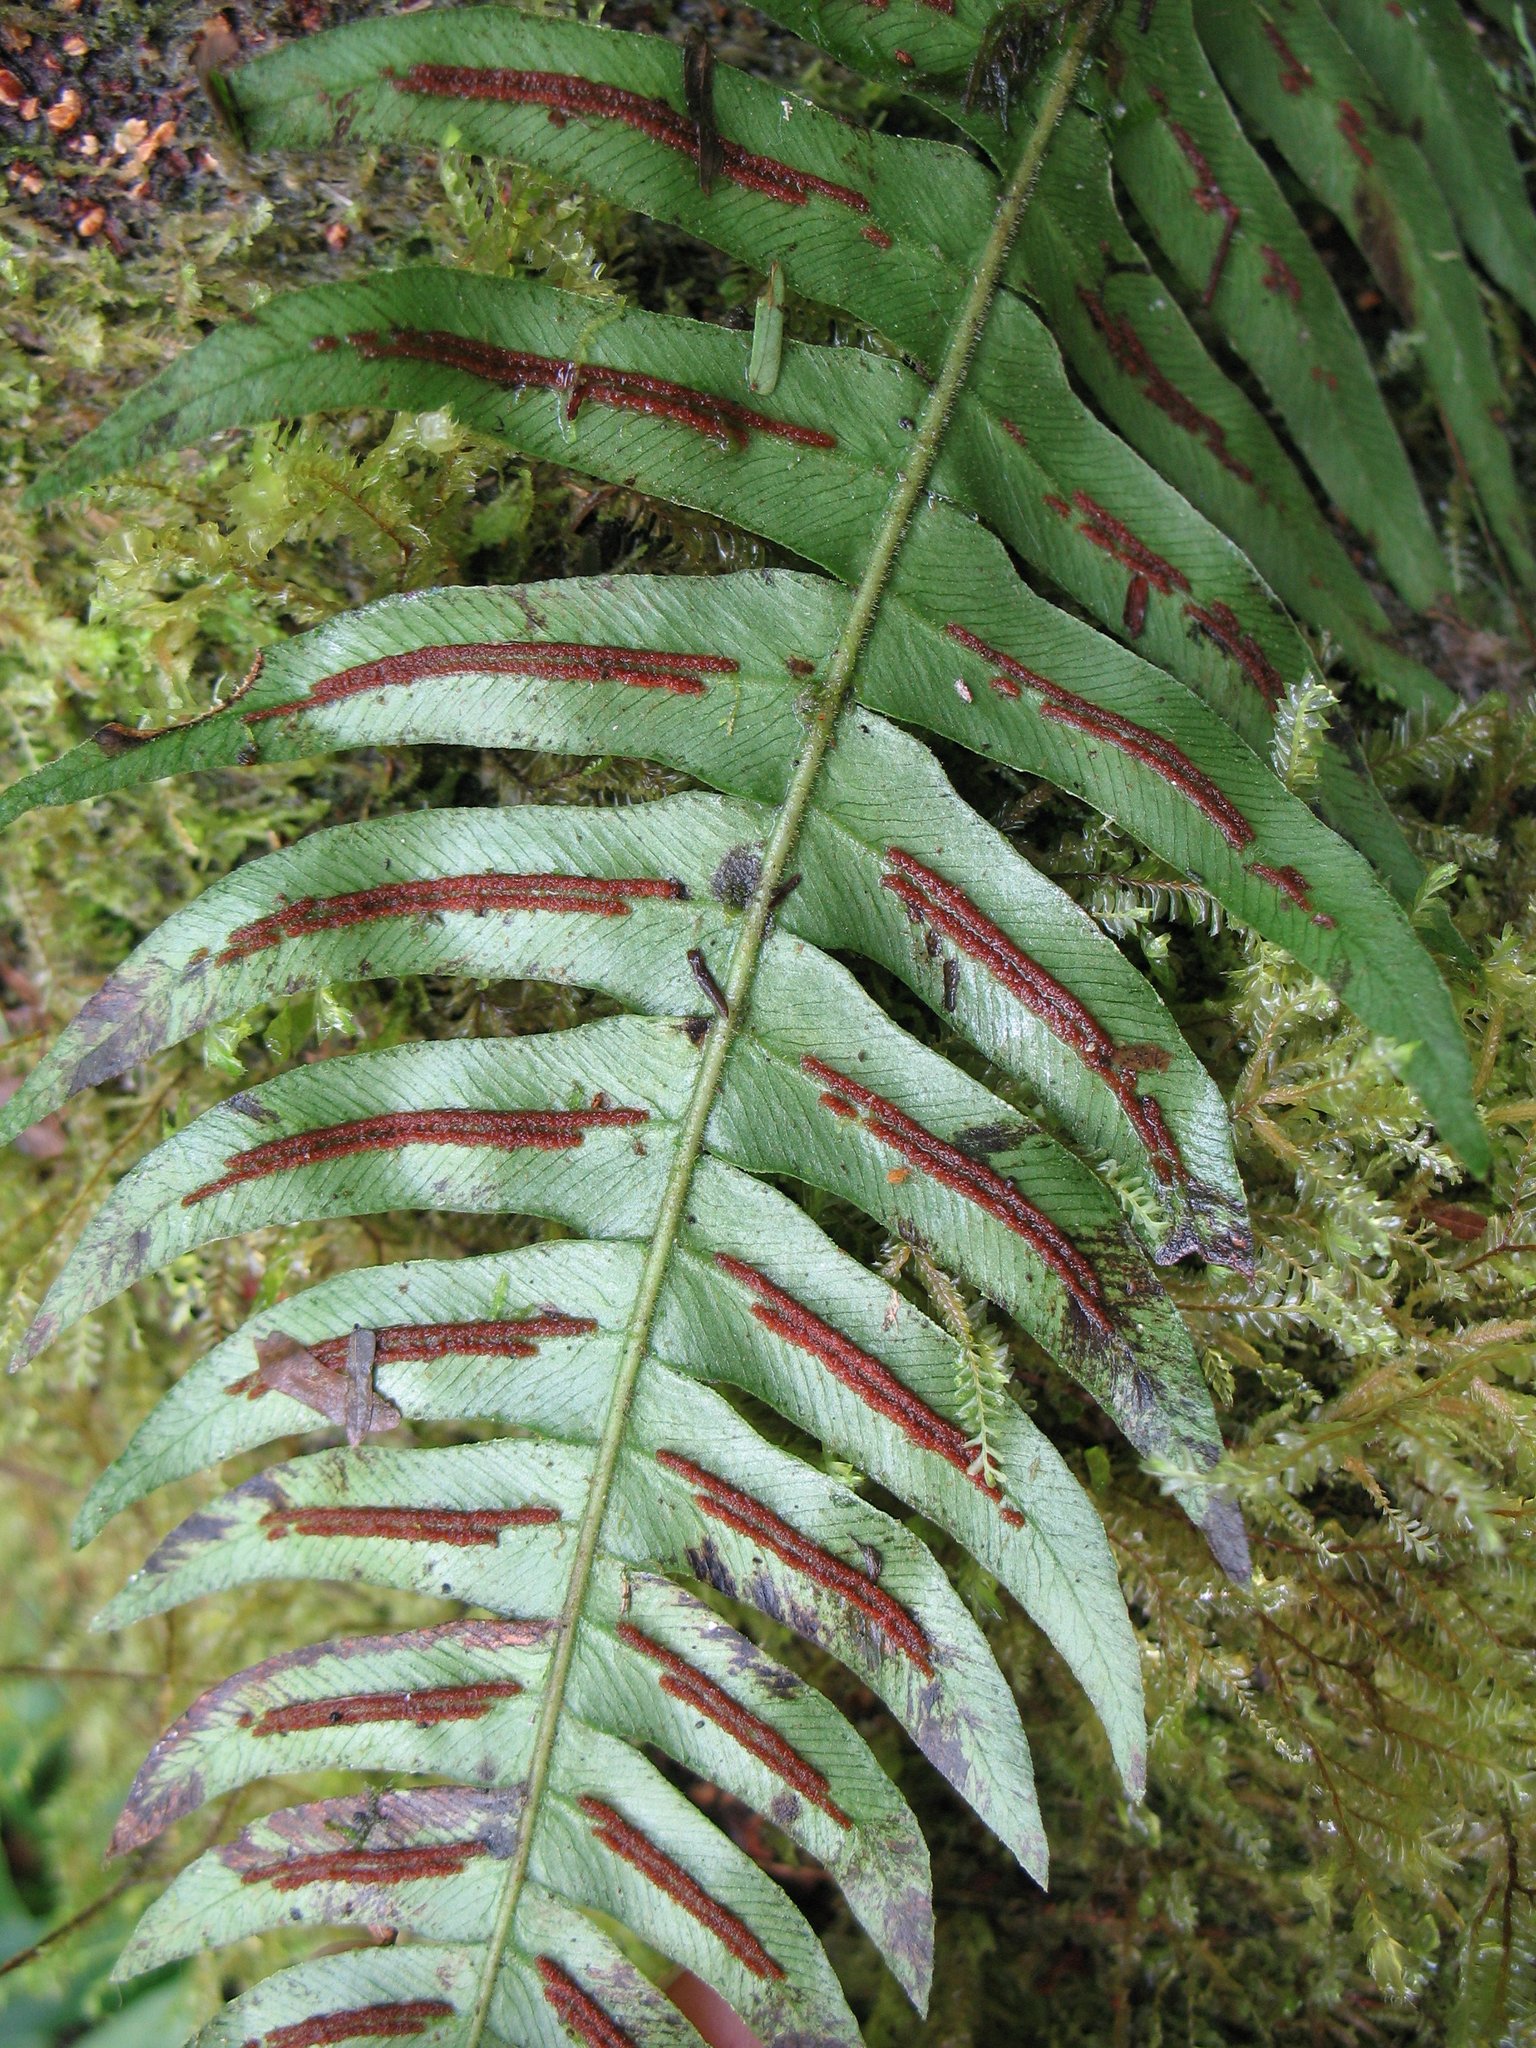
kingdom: Plantae
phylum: Tracheophyta
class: Polypodiopsida
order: Polypodiales
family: Blechnaceae
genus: Blechnum
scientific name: Blechnum appendiculatum
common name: Palm fern
